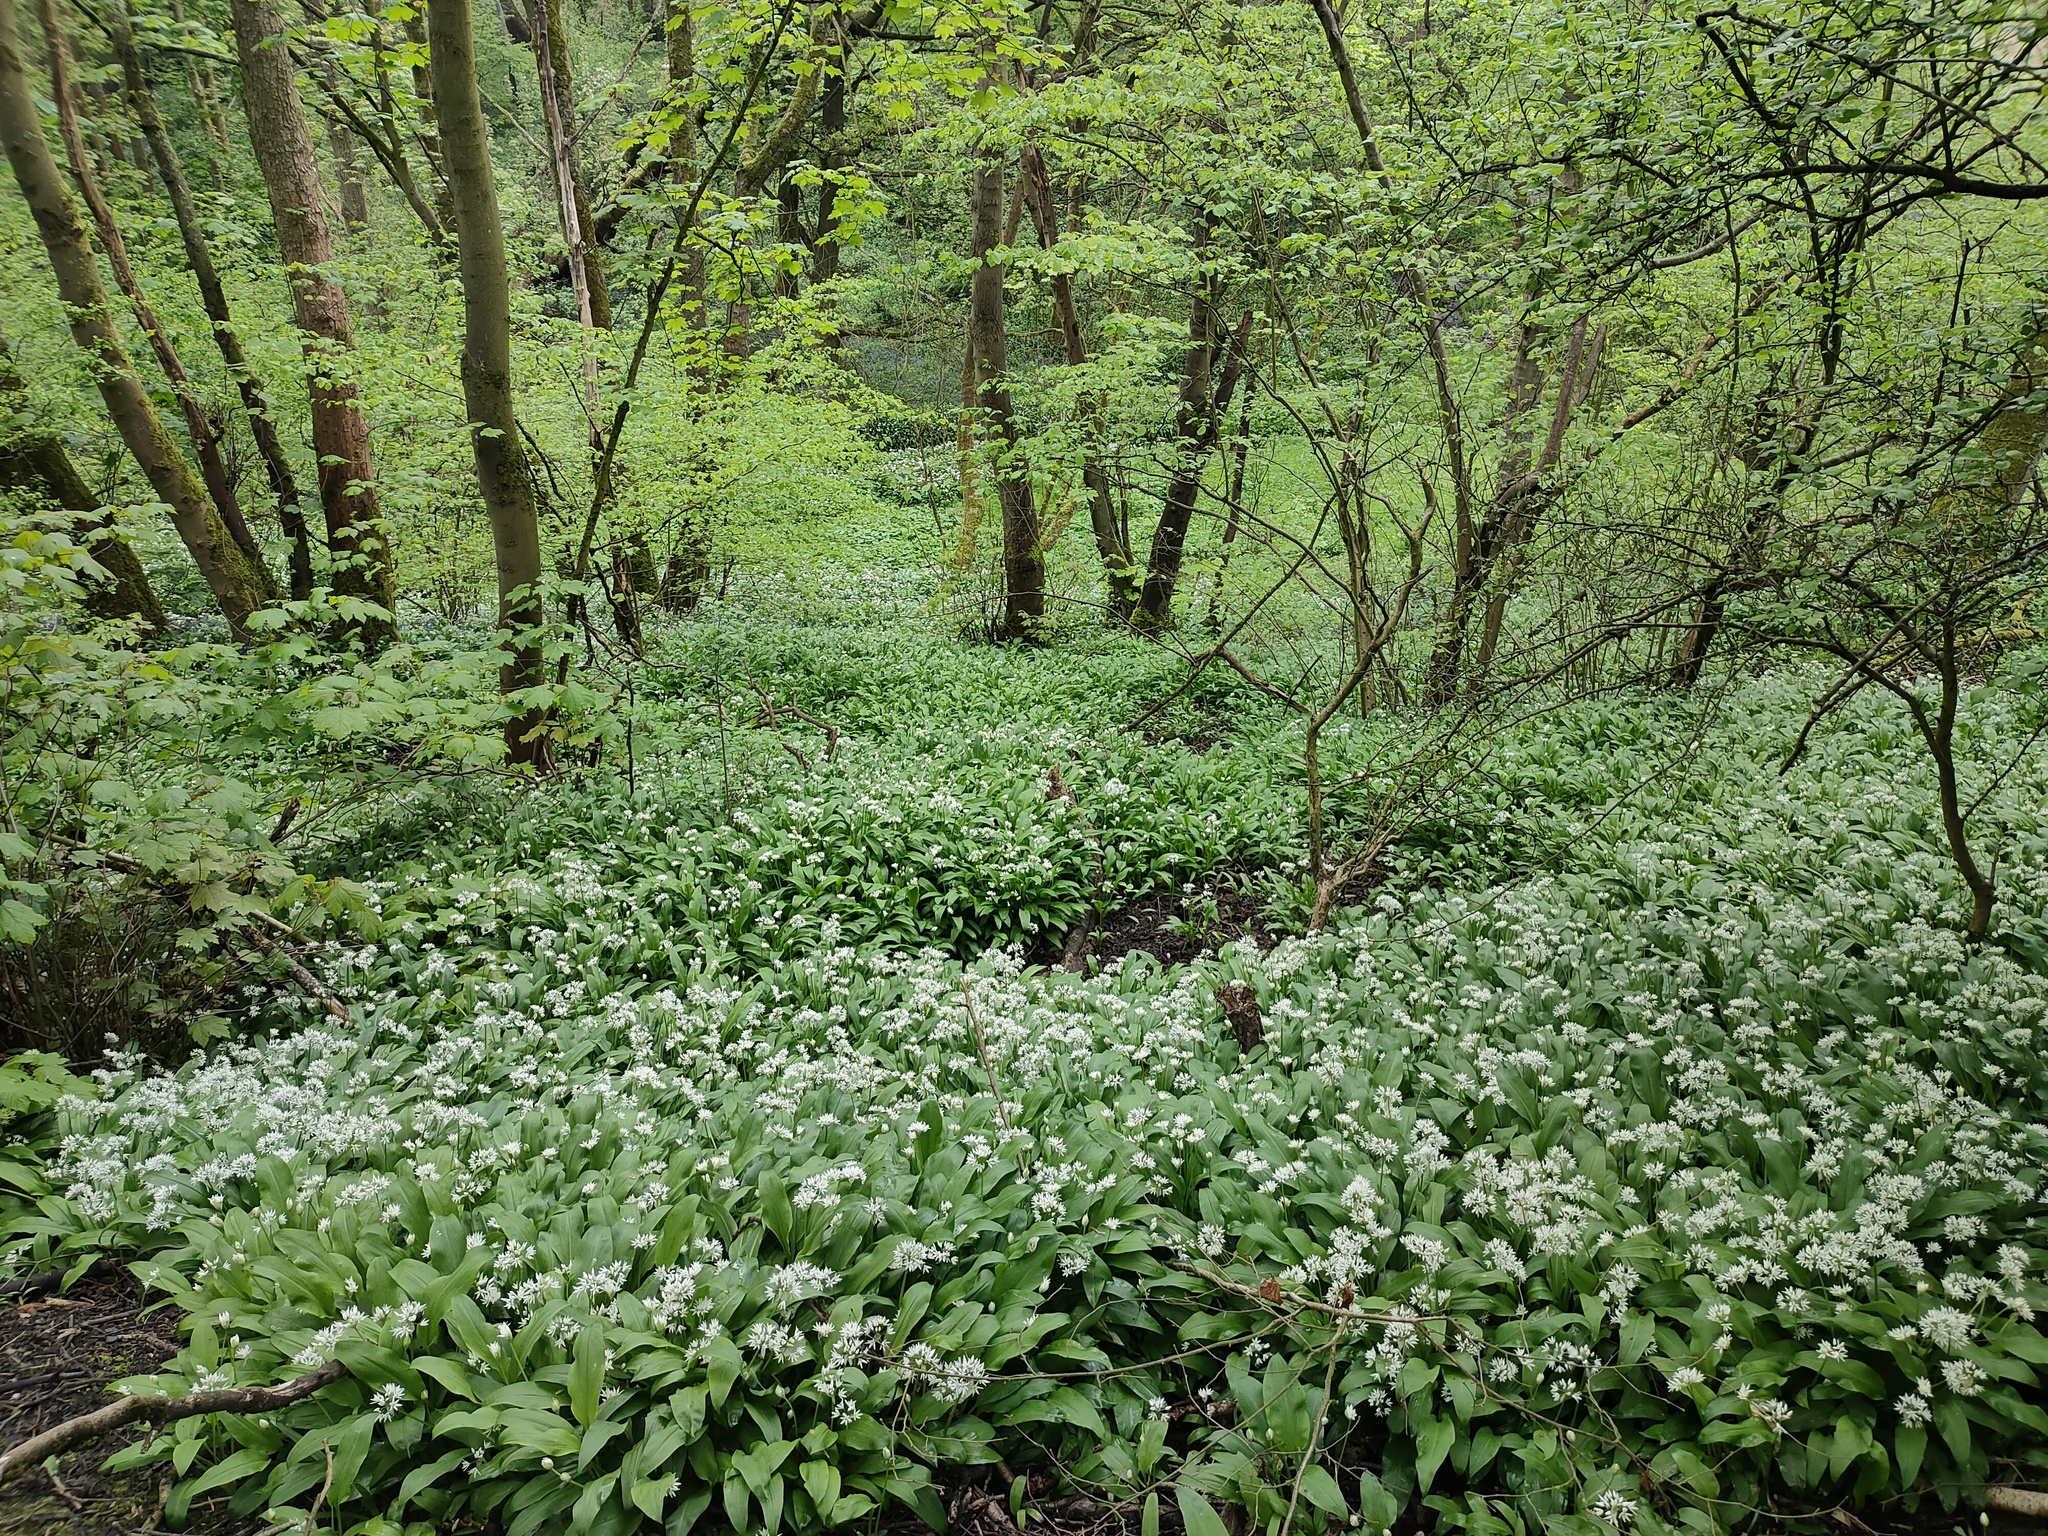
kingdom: Plantae
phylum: Tracheophyta
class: Liliopsida
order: Asparagales
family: Amaryllidaceae
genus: Allium
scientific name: Allium ursinum
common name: Ramsons
